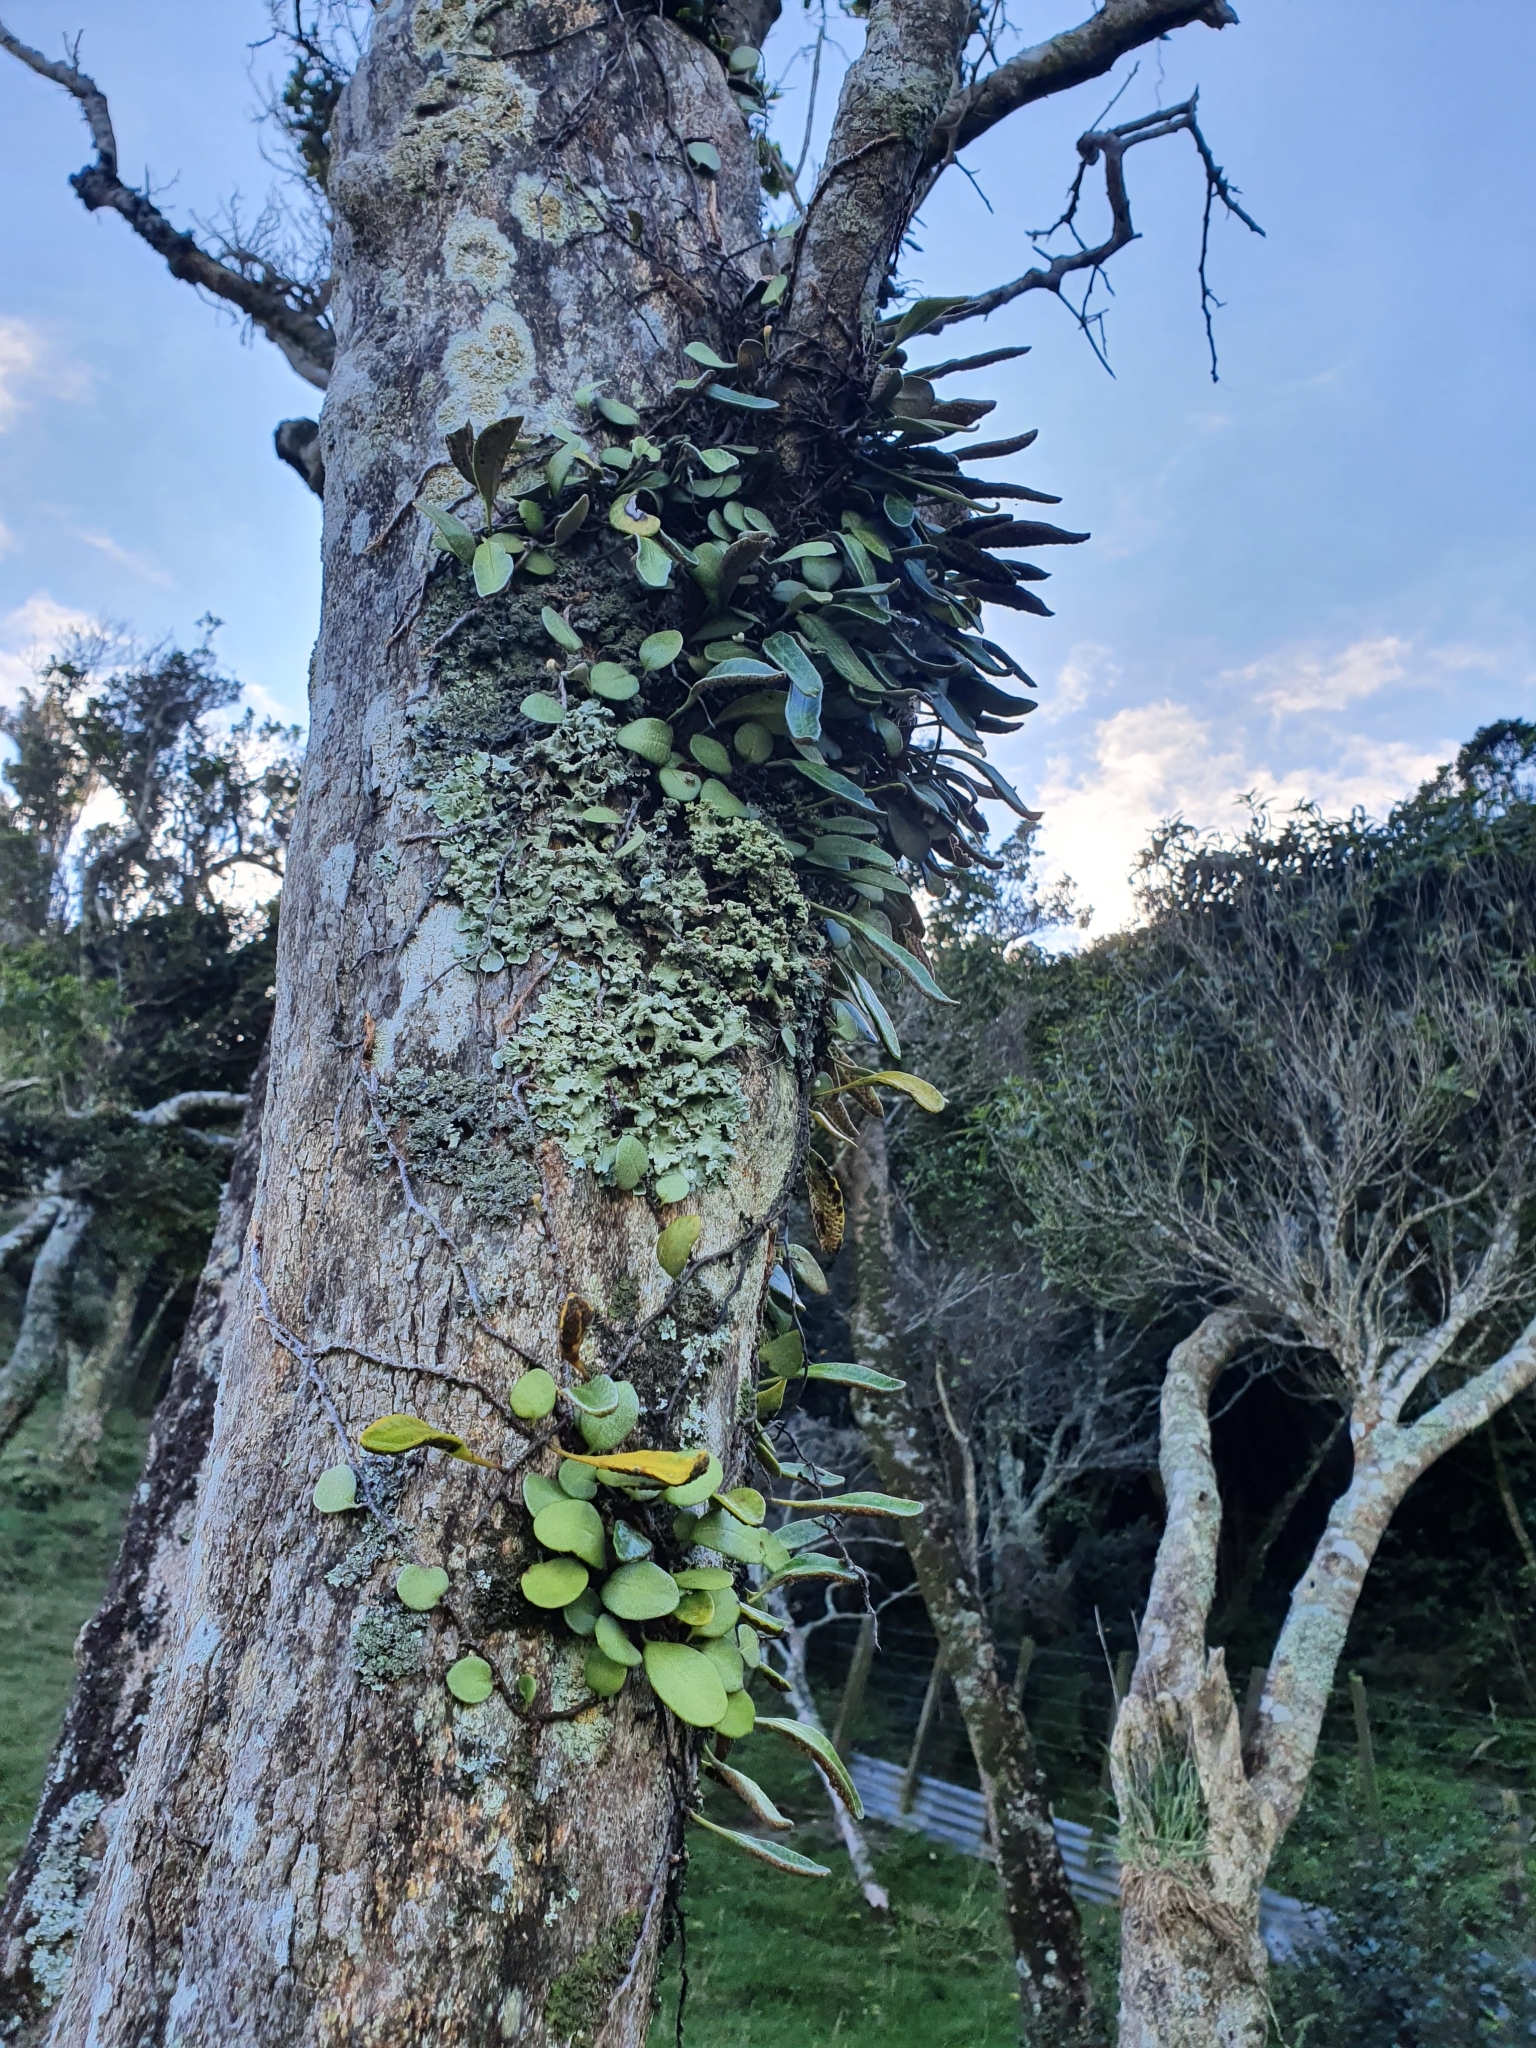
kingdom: Plantae
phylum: Tracheophyta
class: Polypodiopsida
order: Polypodiales
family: Polypodiaceae
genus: Pyrrosia
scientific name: Pyrrosia eleagnifolia
